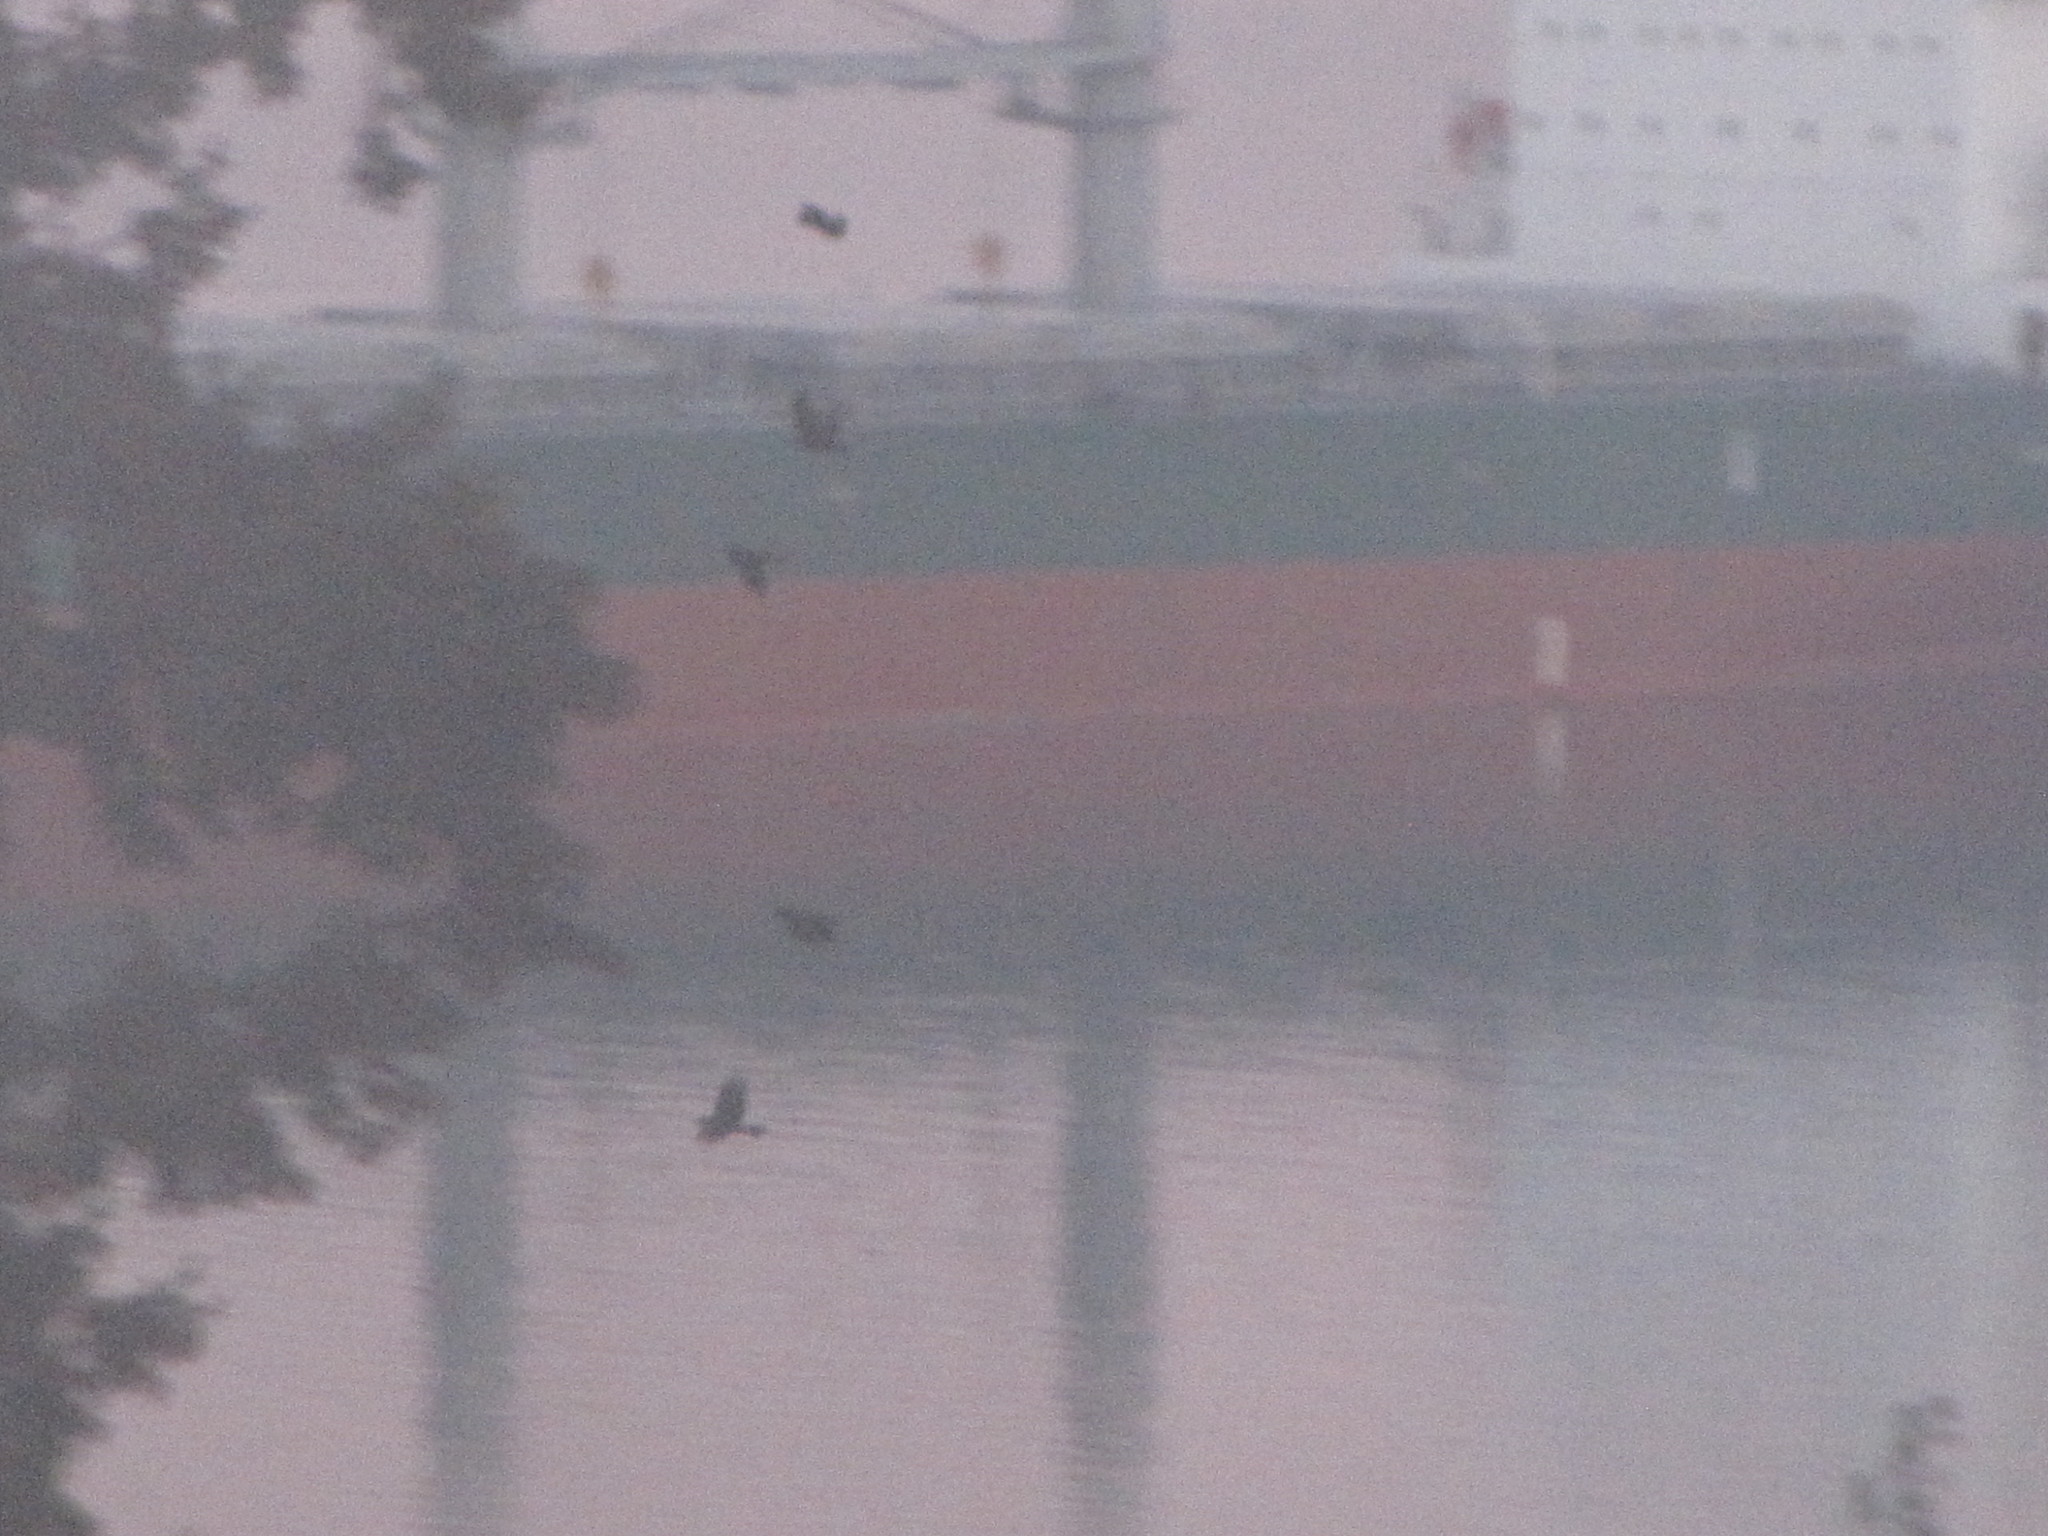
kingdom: Animalia
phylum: Chordata
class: Aves
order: Passeriformes
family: Corvidae
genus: Corvus
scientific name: Corvus brachyrhynchos
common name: American crow
